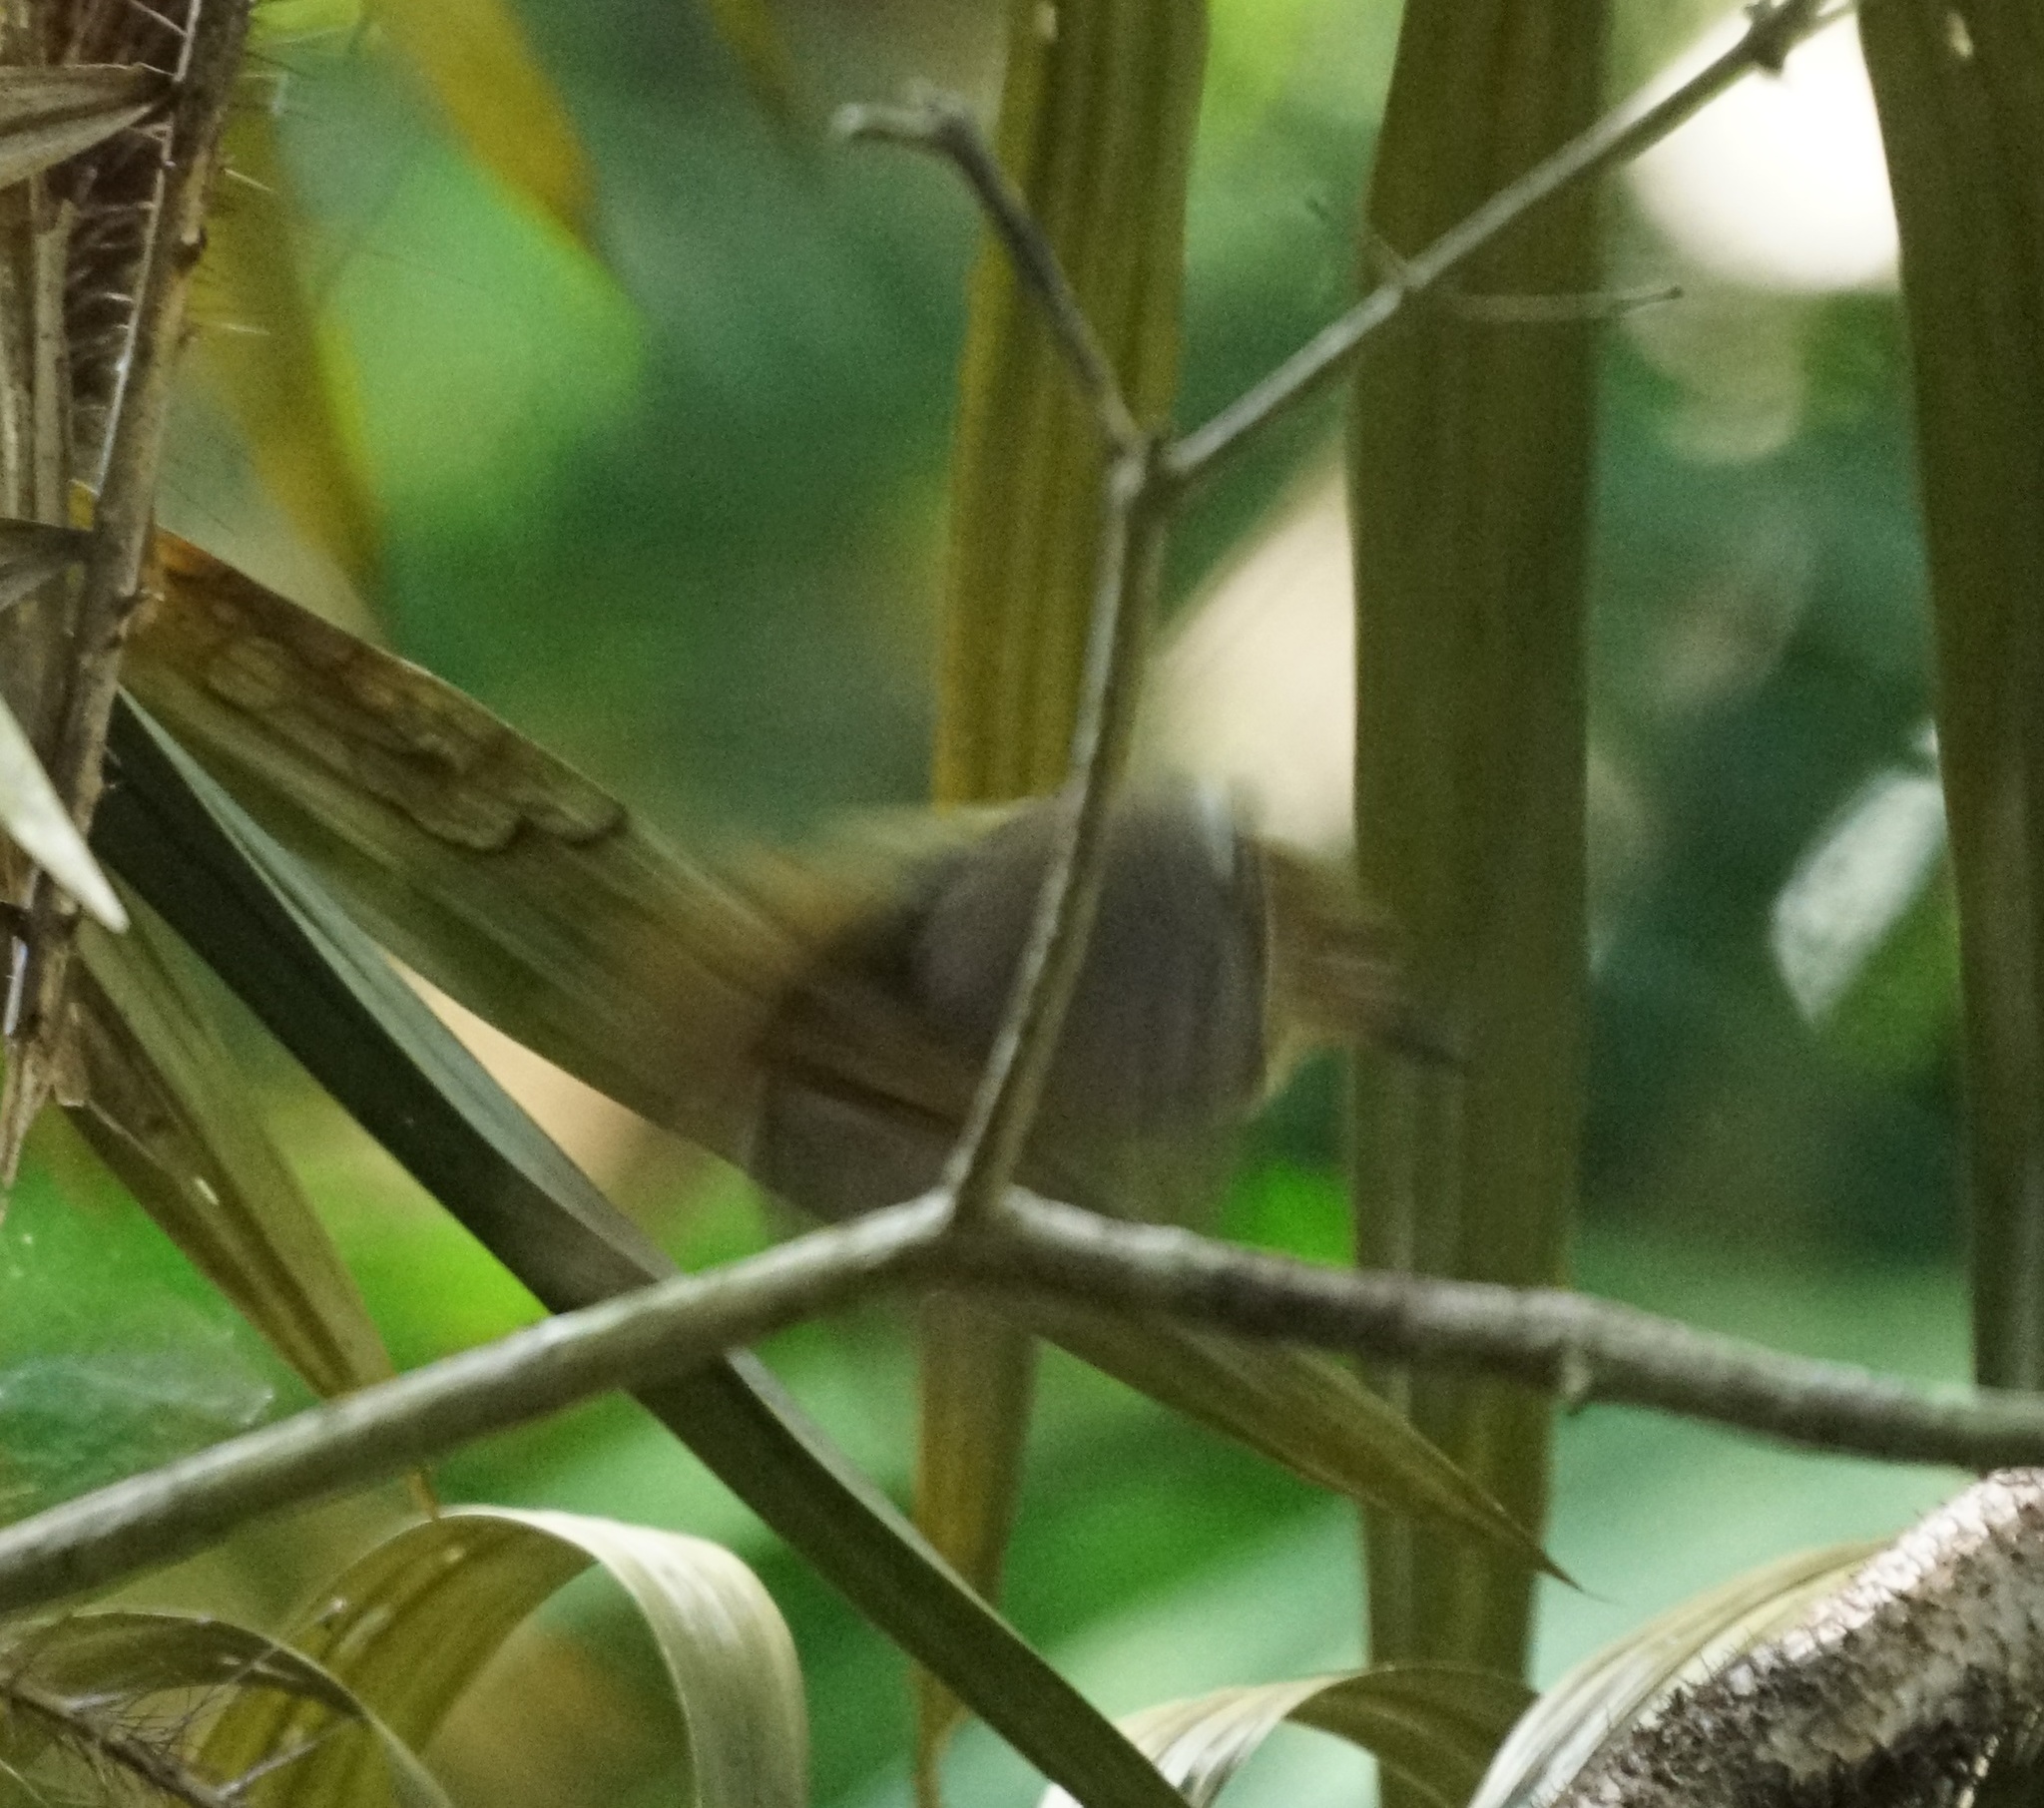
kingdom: Animalia
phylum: Chordata
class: Aves
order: Passeriformes
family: Acanthizidae
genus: Sericornis
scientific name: Sericornis magnirostra
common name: Large-billed scrubwren
